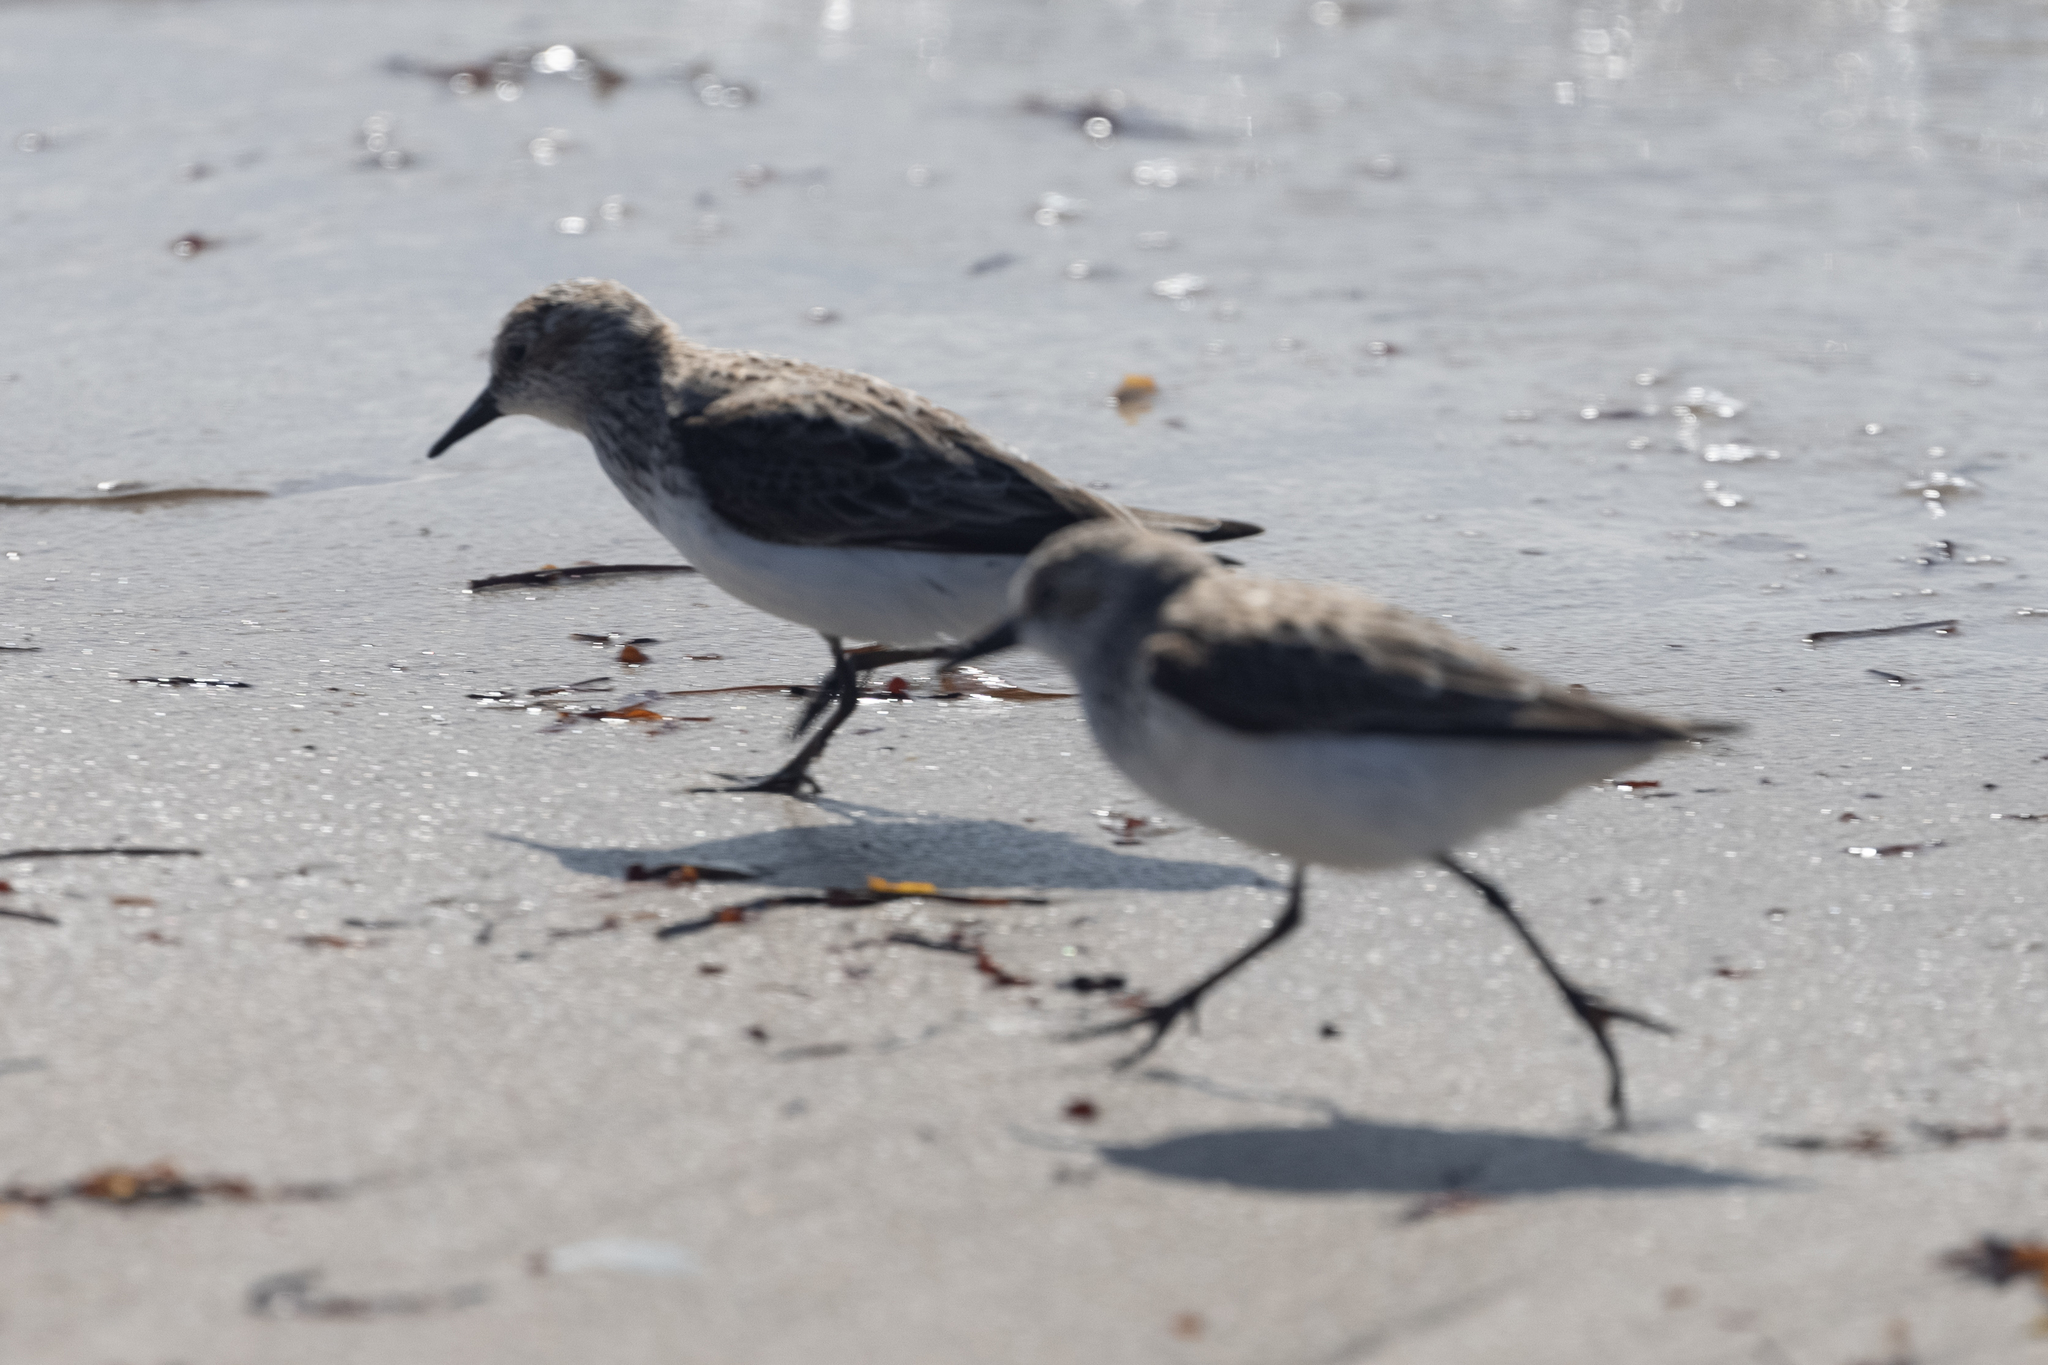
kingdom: Animalia
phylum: Chordata
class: Aves
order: Charadriiformes
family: Scolopacidae
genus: Calidris
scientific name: Calidris alba
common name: Sanderling
